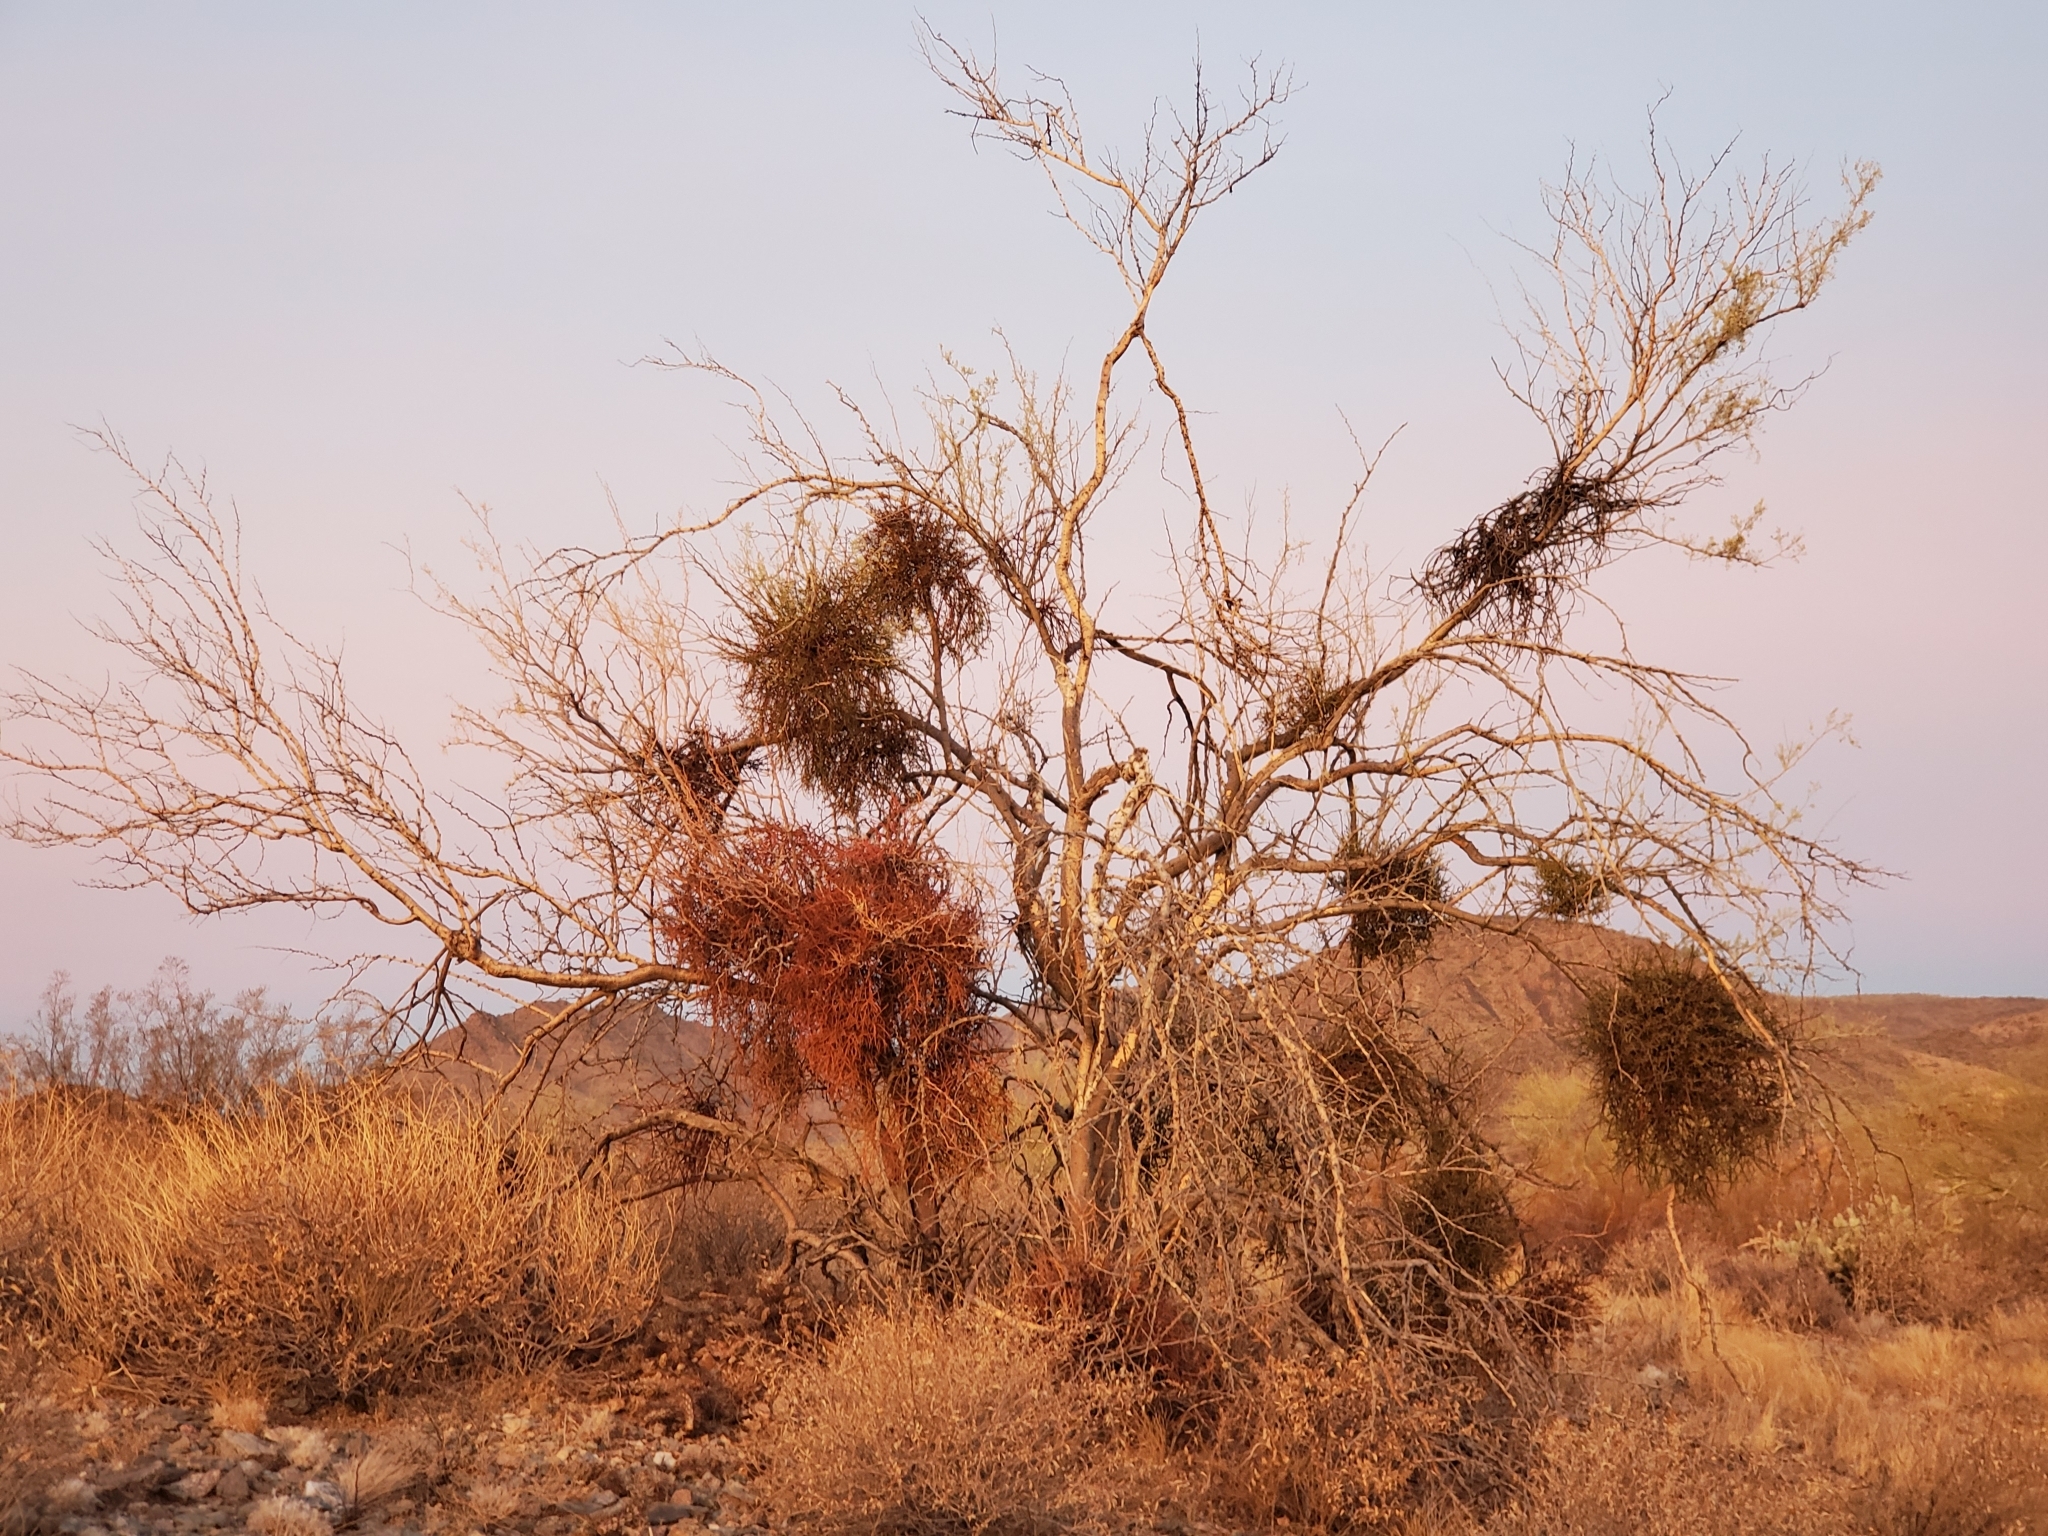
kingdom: Plantae
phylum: Tracheophyta
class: Magnoliopsida
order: Santalales
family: Viscaceae
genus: Phoradendron
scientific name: Phoradendron californicum
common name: Acacia mistletoe
